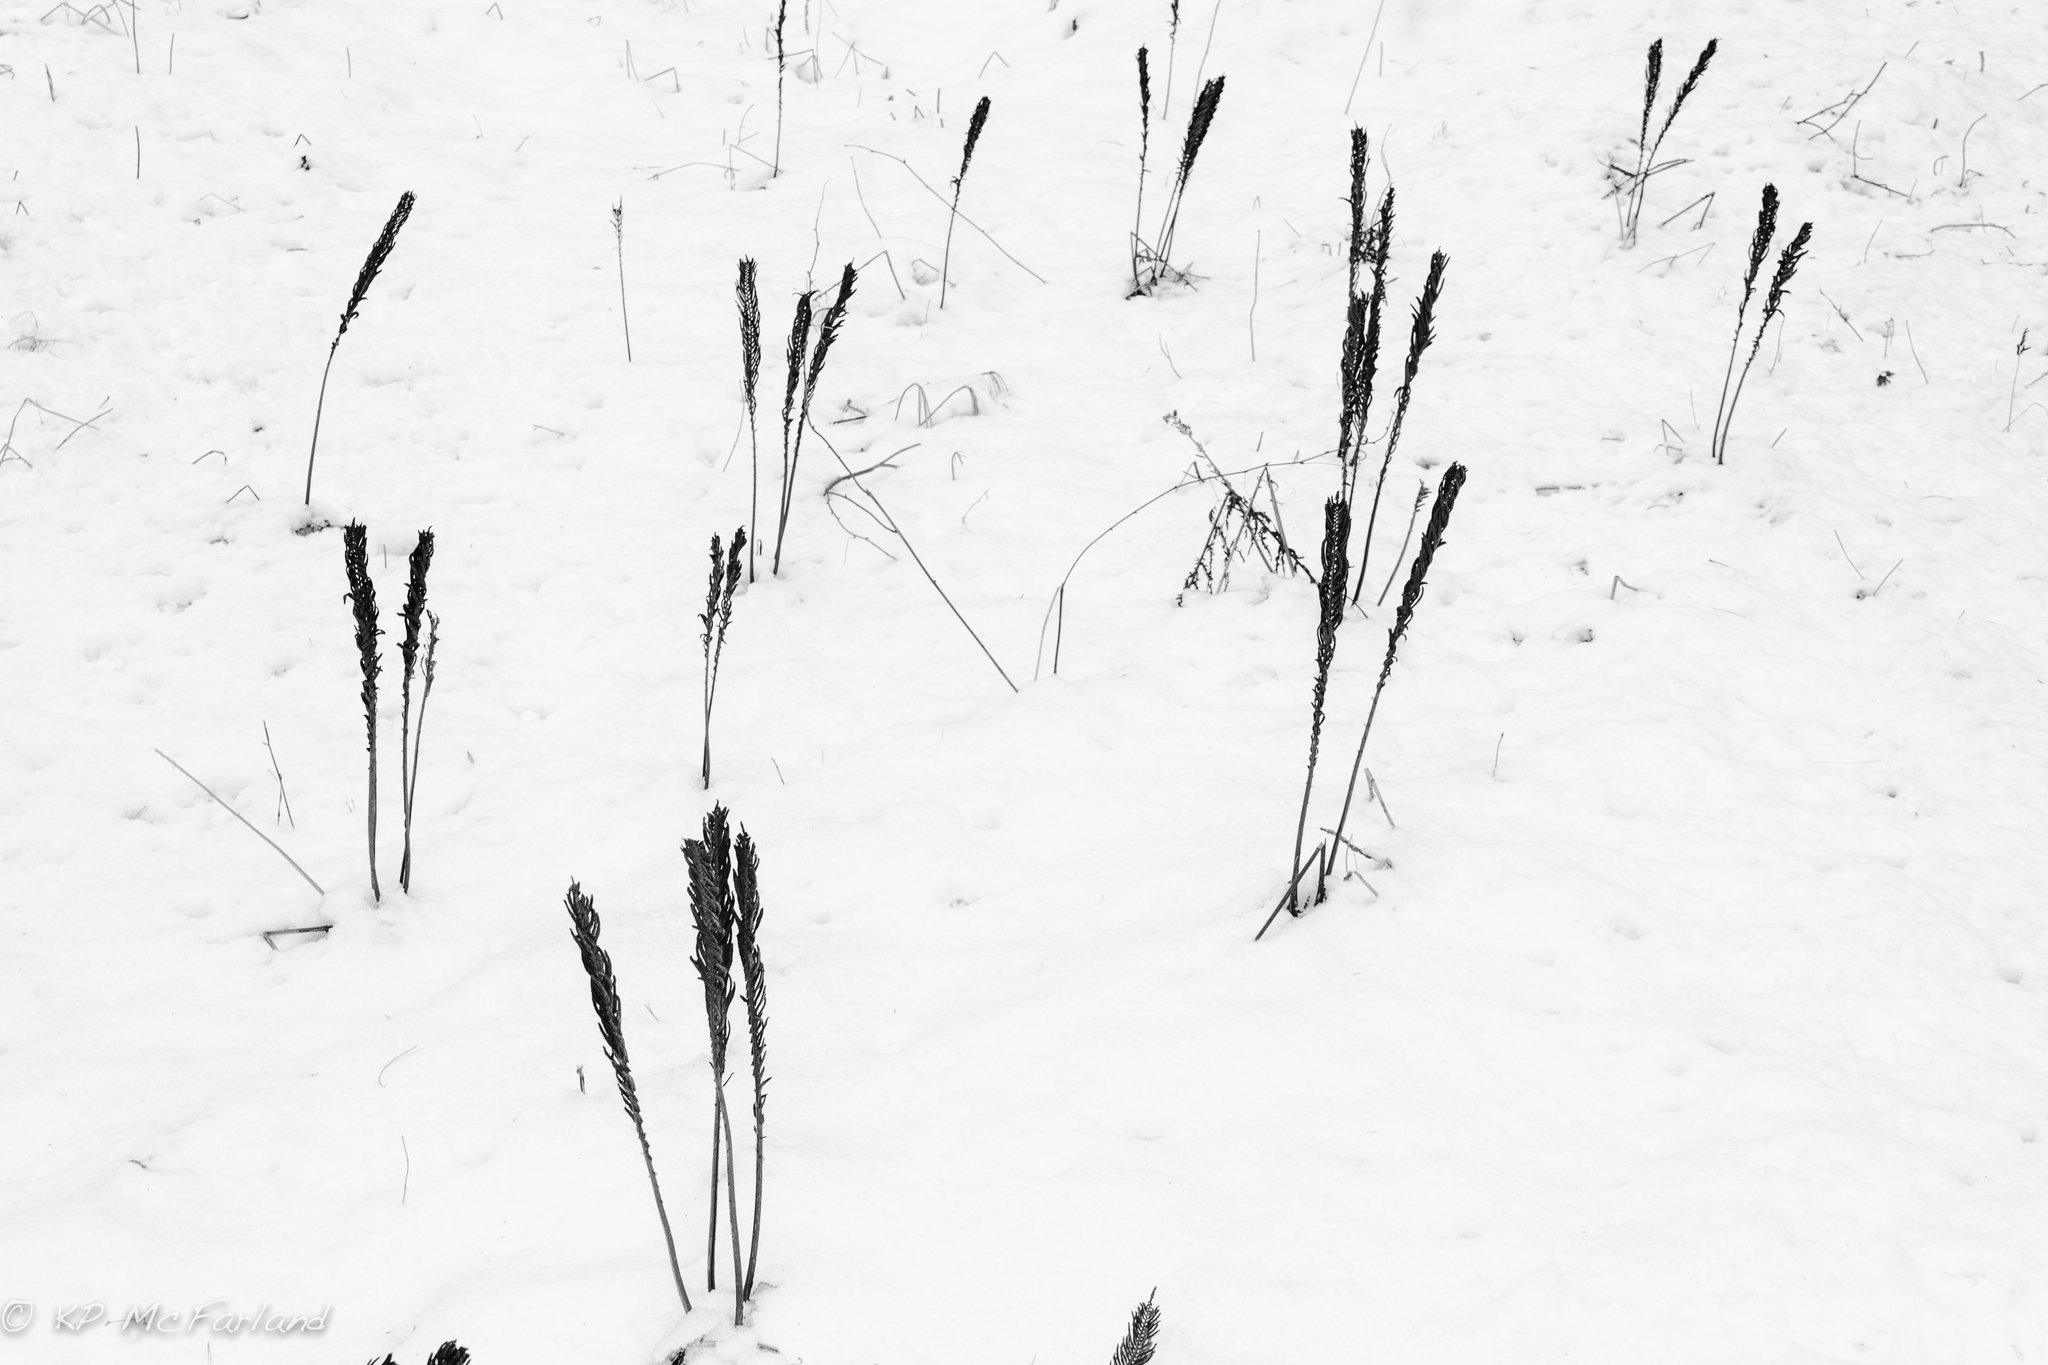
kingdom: Plantae
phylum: Tracheophyta
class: Polypodiopsida
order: Polypodiales
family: Onocleaceae
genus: Matteuccia
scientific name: Matteuccia struthiopteris
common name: Ostrich fern
